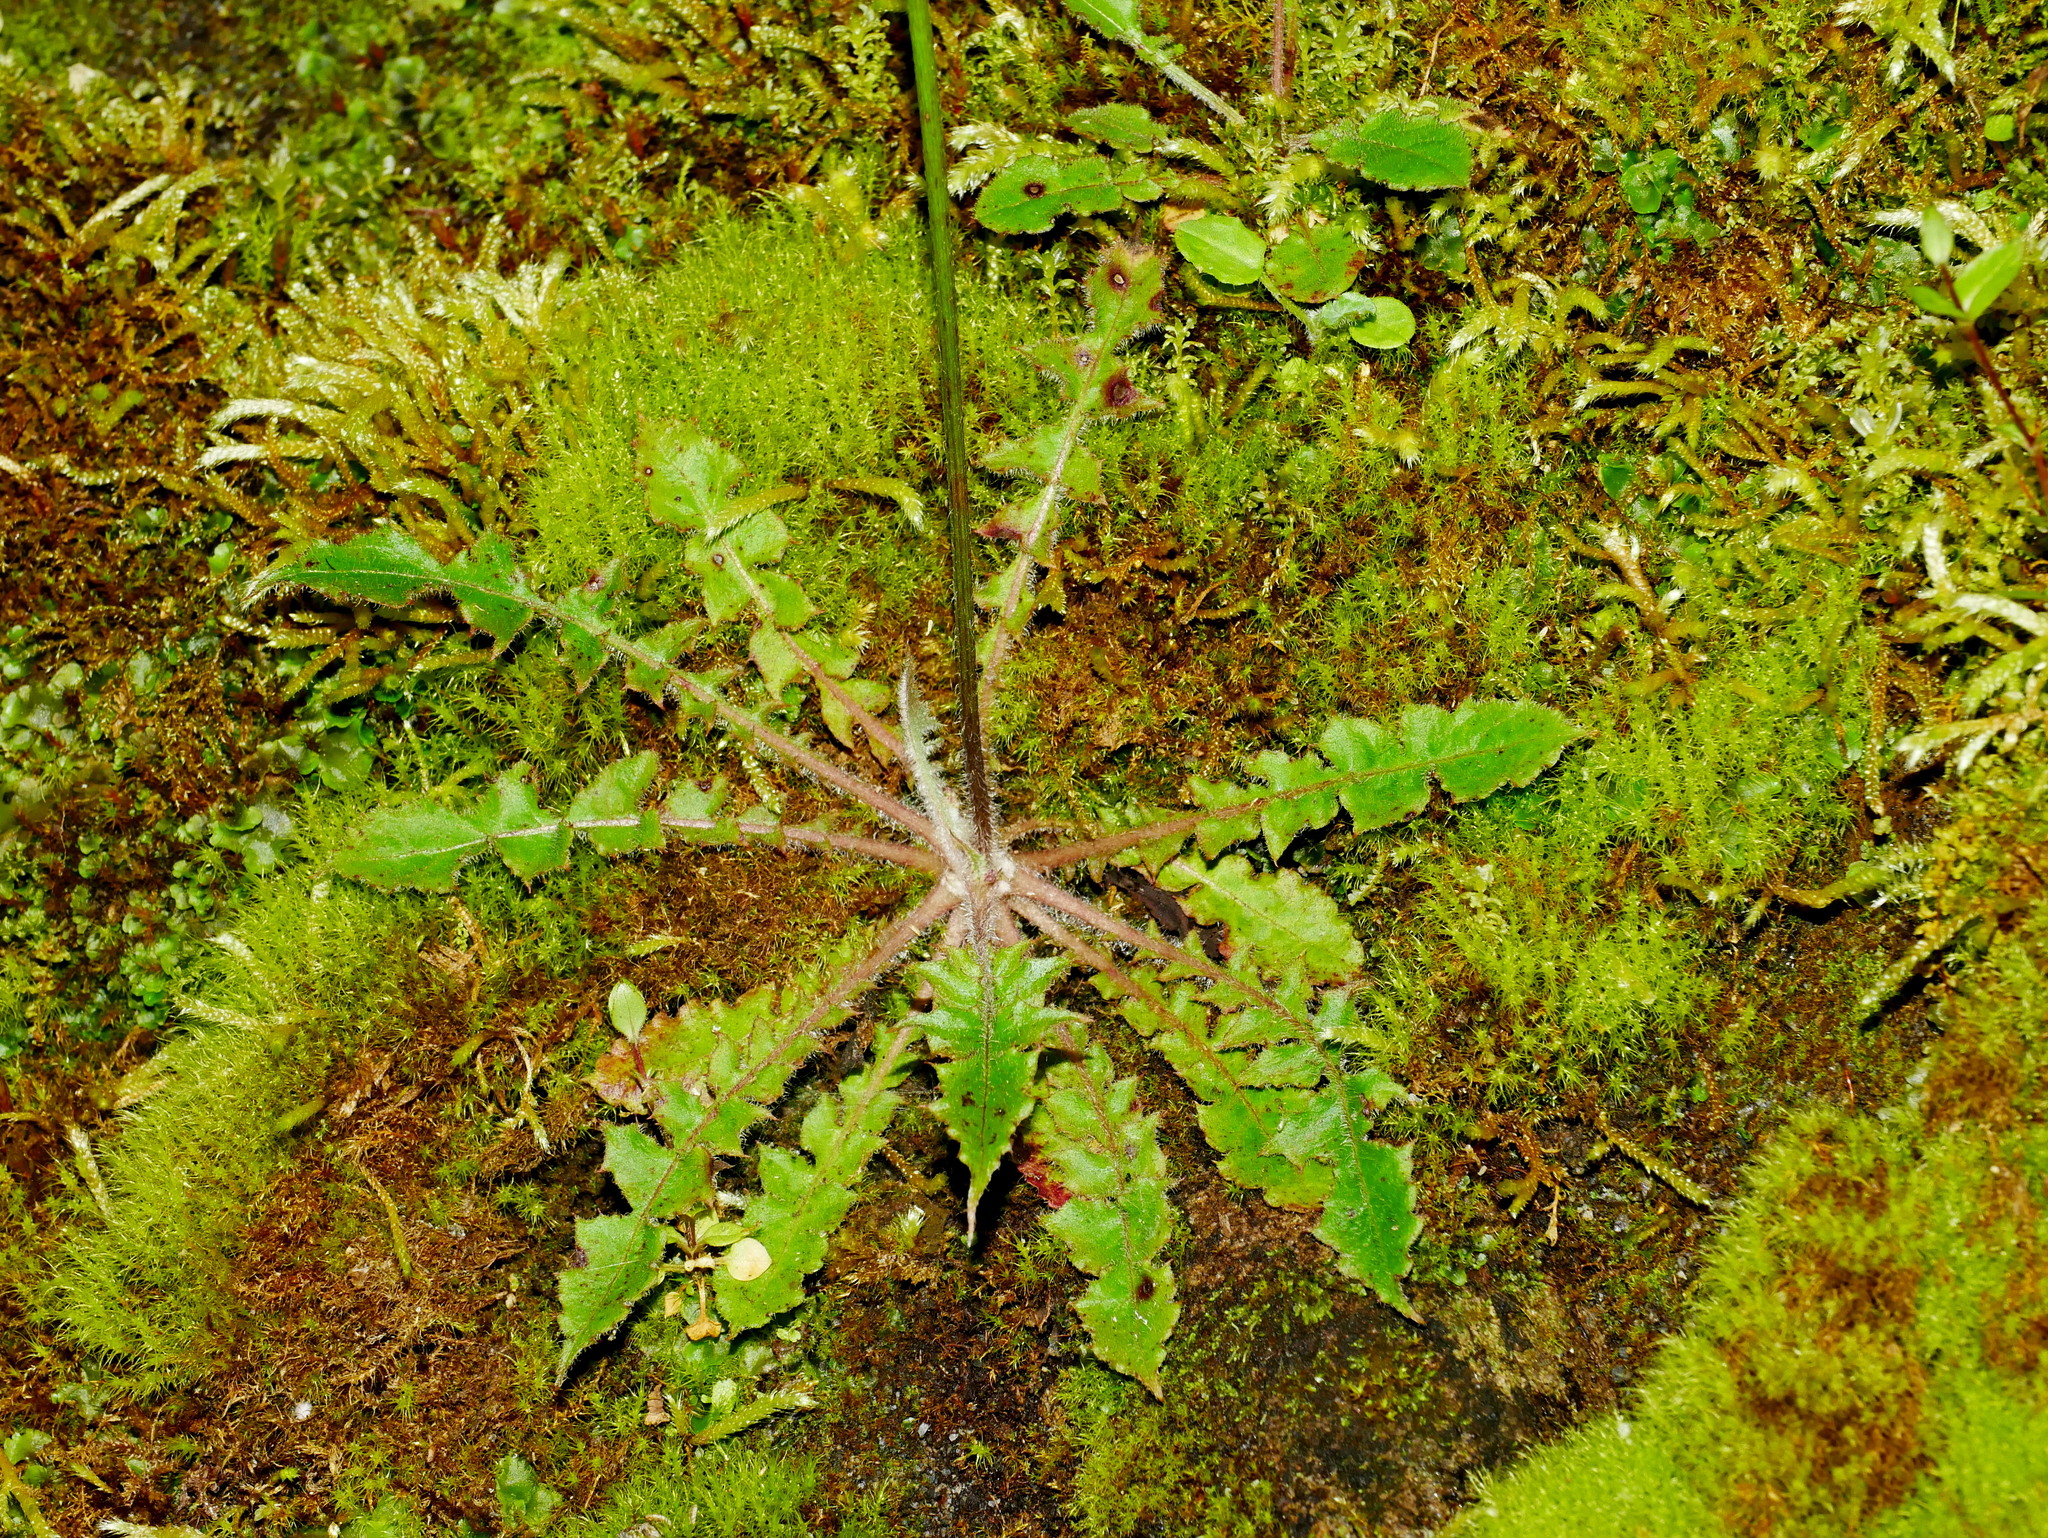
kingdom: Plantae
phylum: Tracheophyta
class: Magnoliopsida
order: Asterales
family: Asteraceae
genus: Youngia
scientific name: Youngia japonica
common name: Oriental false hawksbeard
